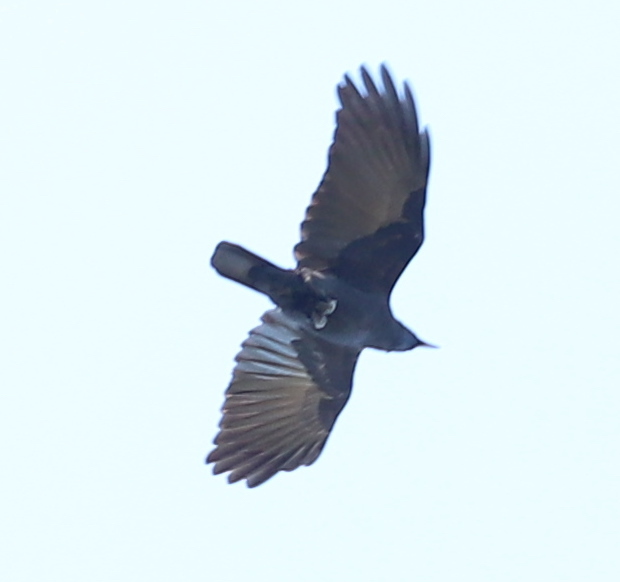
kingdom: Animalia
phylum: Chordata
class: Aves
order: Passeriformes
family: Corvidae
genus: Corvus
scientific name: Corvus
